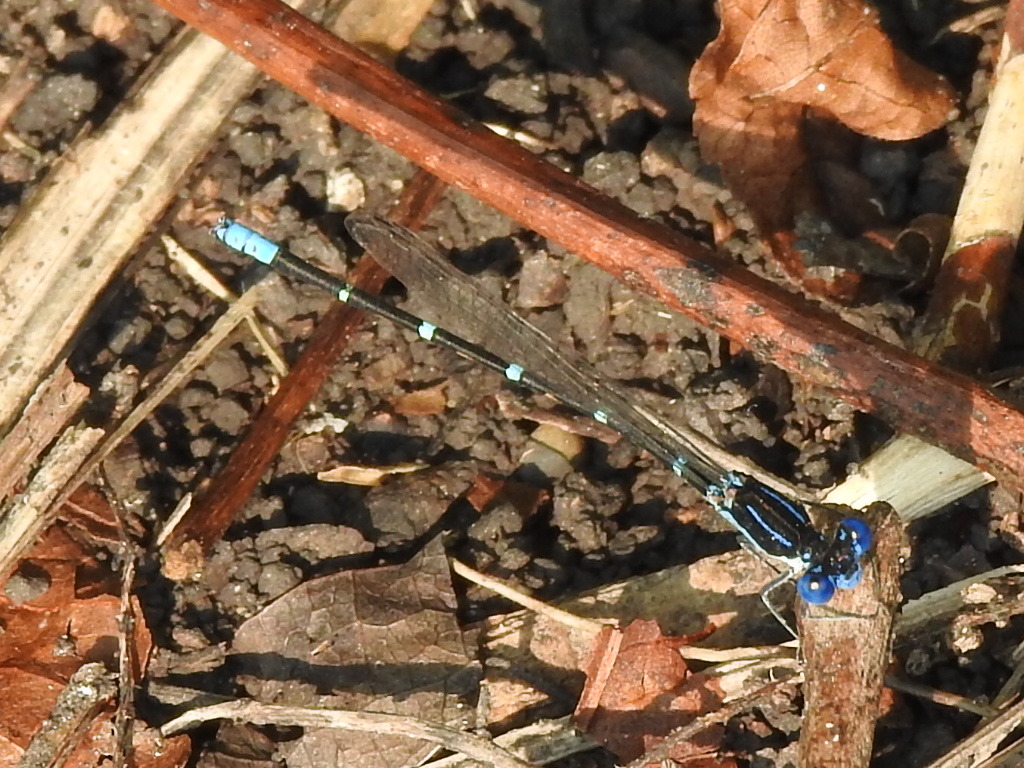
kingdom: Animalia
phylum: Arthropoda
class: Insecta
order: Odonata
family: Coenagrionidae
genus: Argia
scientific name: Argia sedula
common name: Blue-ringed dancer
